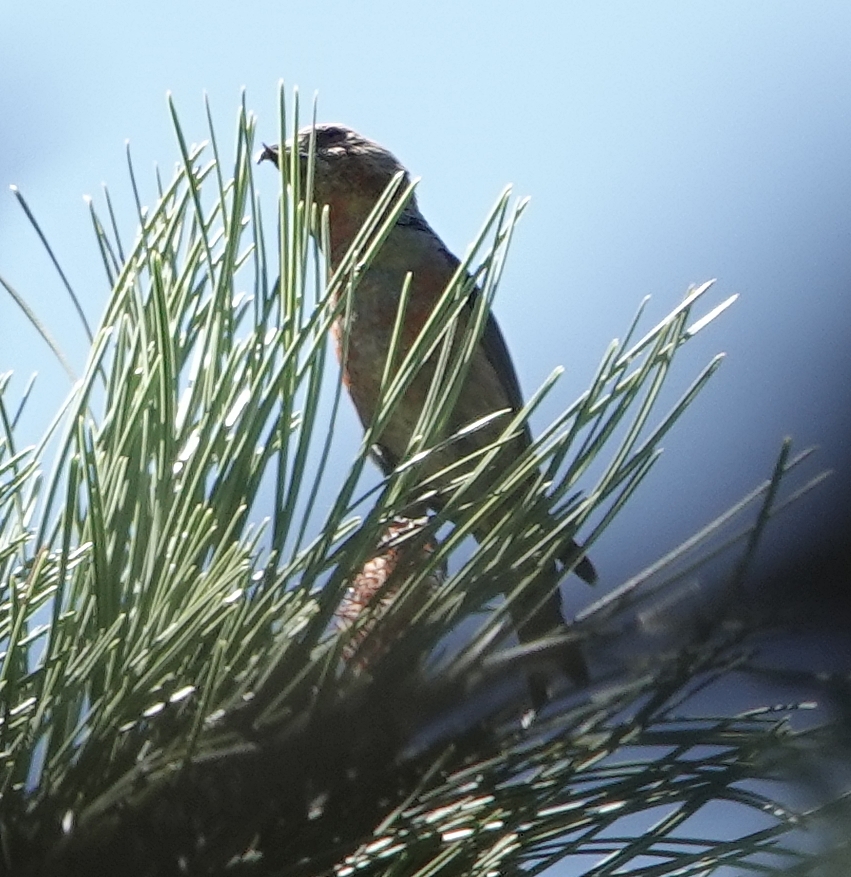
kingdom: Animalia
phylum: Chordata
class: Aves
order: Passeriformes
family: Fringillidae
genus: Loxia
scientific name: Loxia curvirostra
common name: Red crossbill
